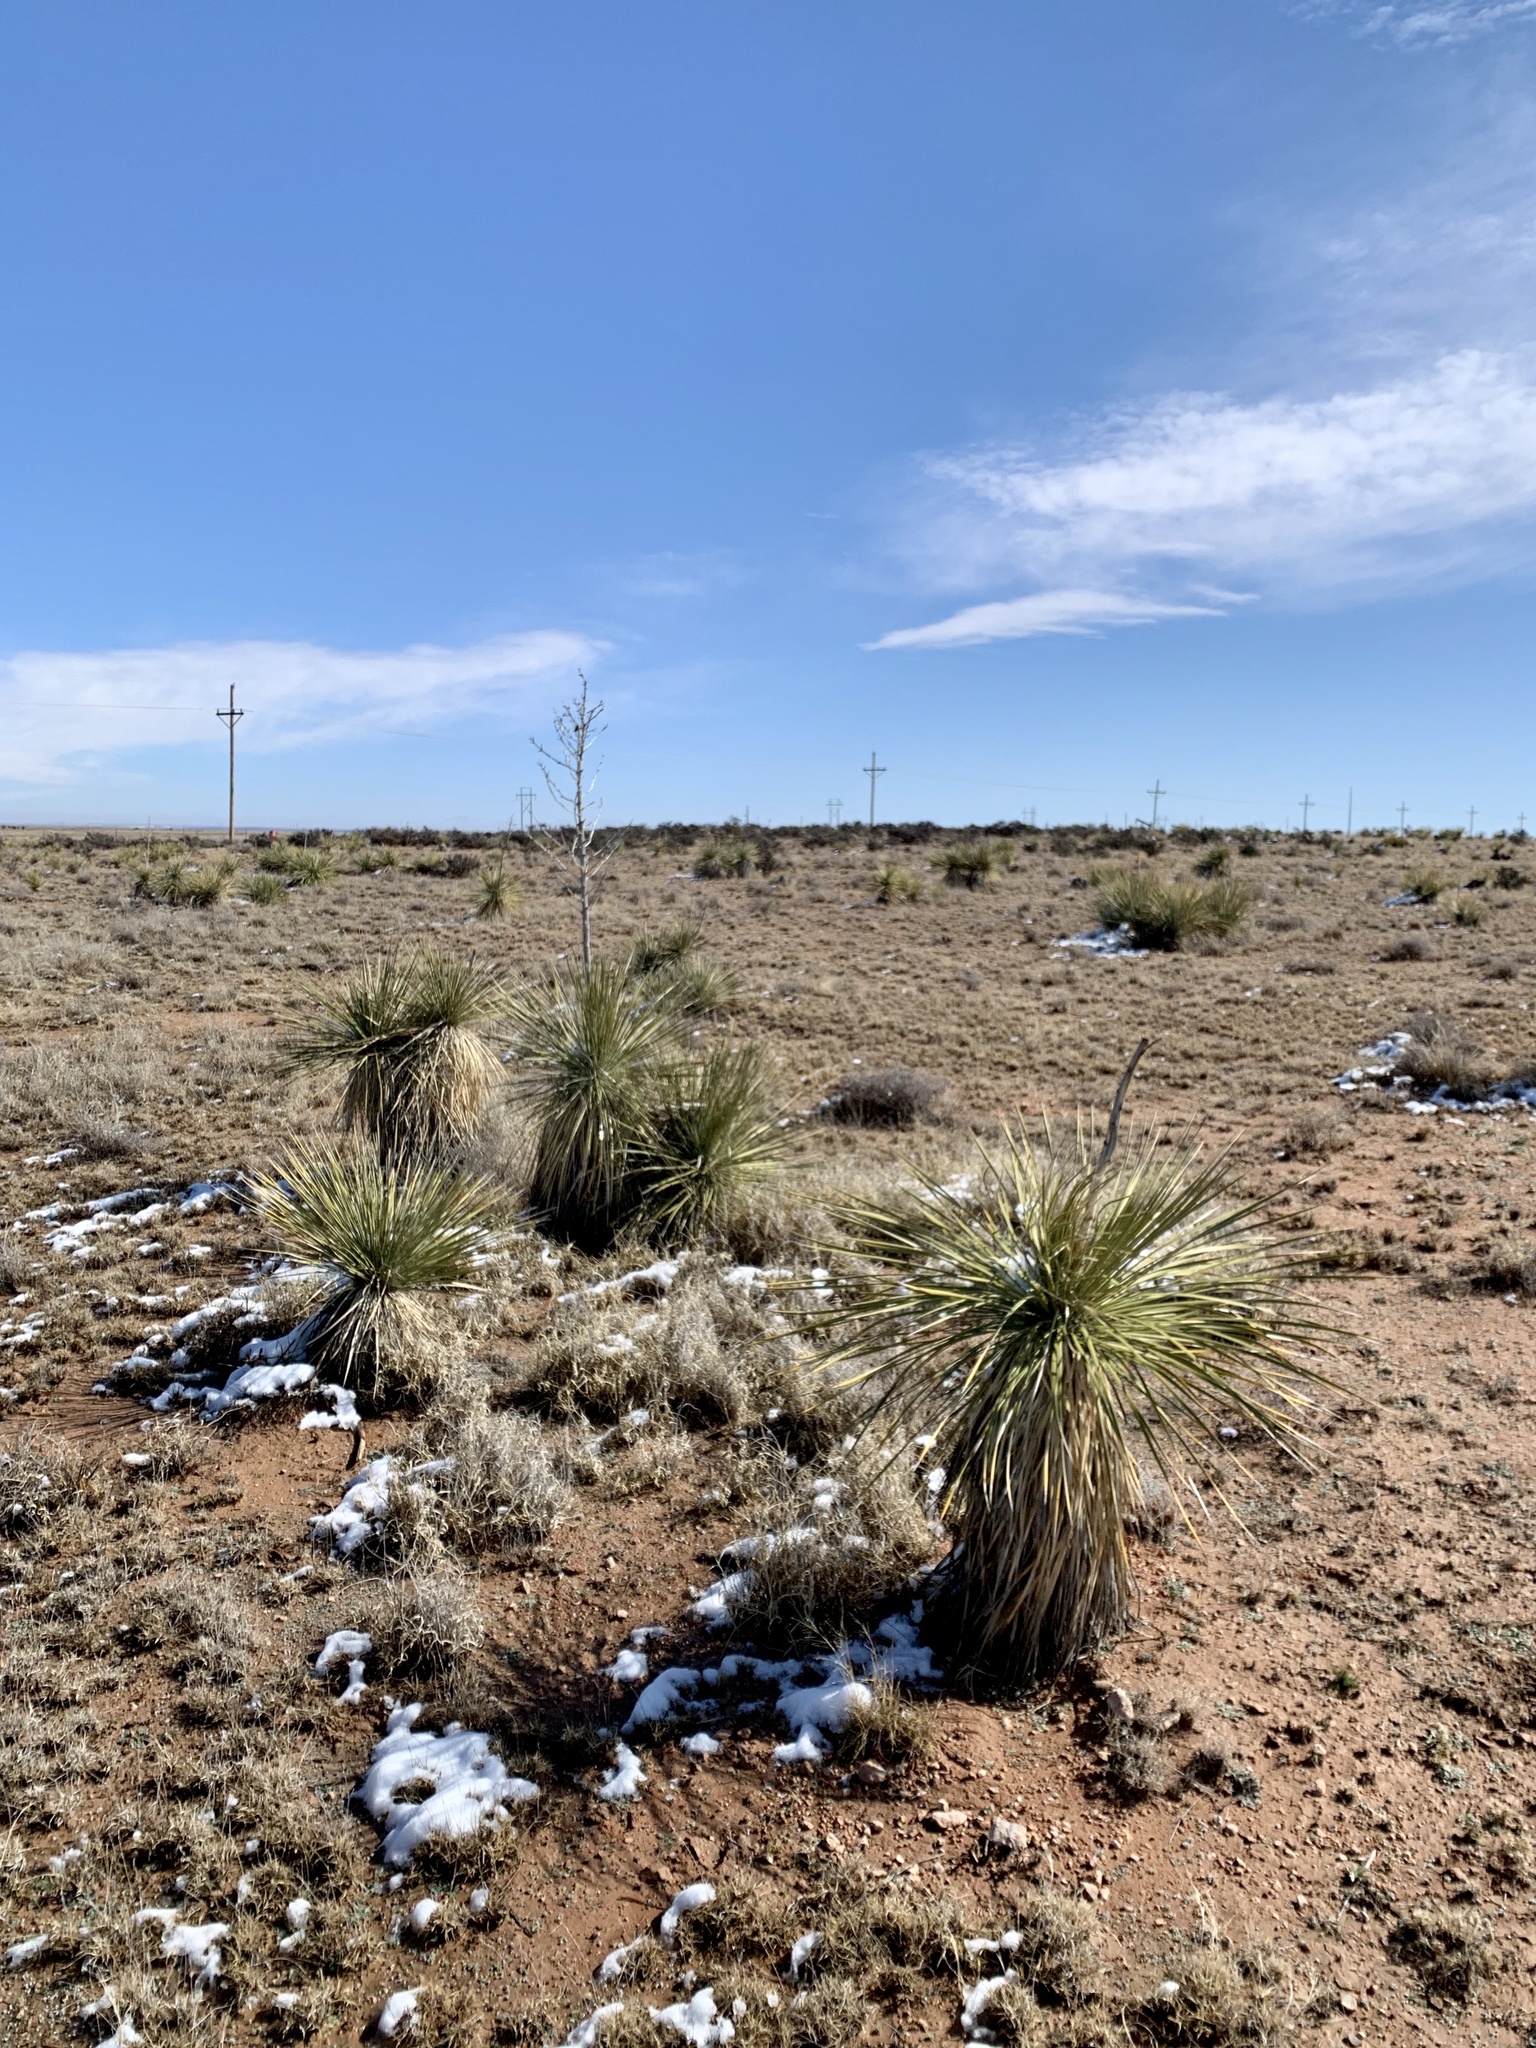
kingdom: Plantae
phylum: Tracheophyta
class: Liliopsida
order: Asparagales
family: Asparagaceae
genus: Yucca
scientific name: Yucca elata
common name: Palmella
